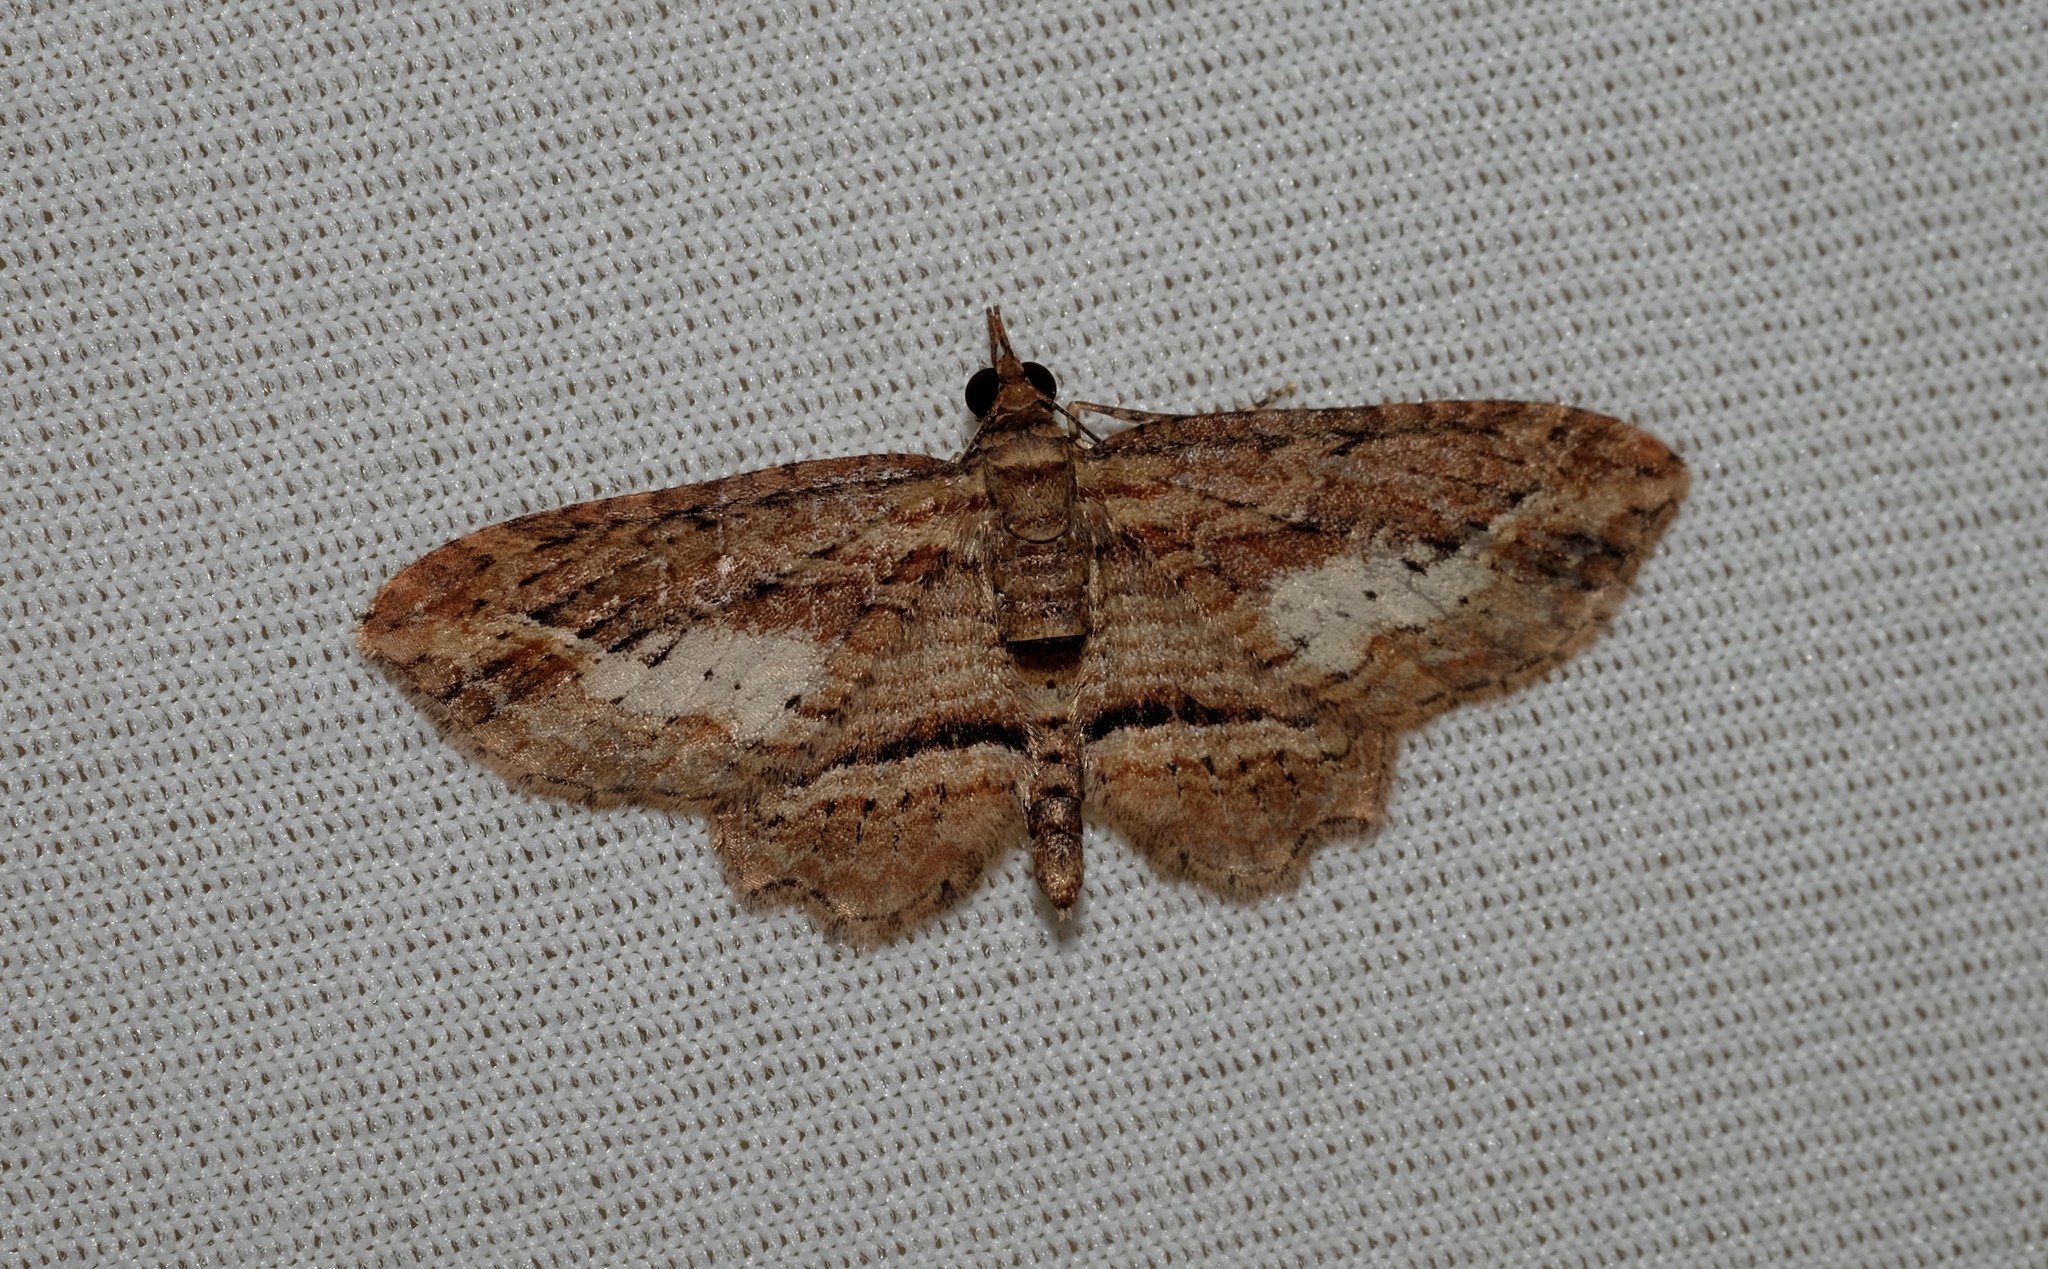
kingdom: Animalia
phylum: Arthropoda
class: Insecta
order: Lepidoptera
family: Geometridae
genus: Chloroclystis
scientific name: Chloroclystis filata
